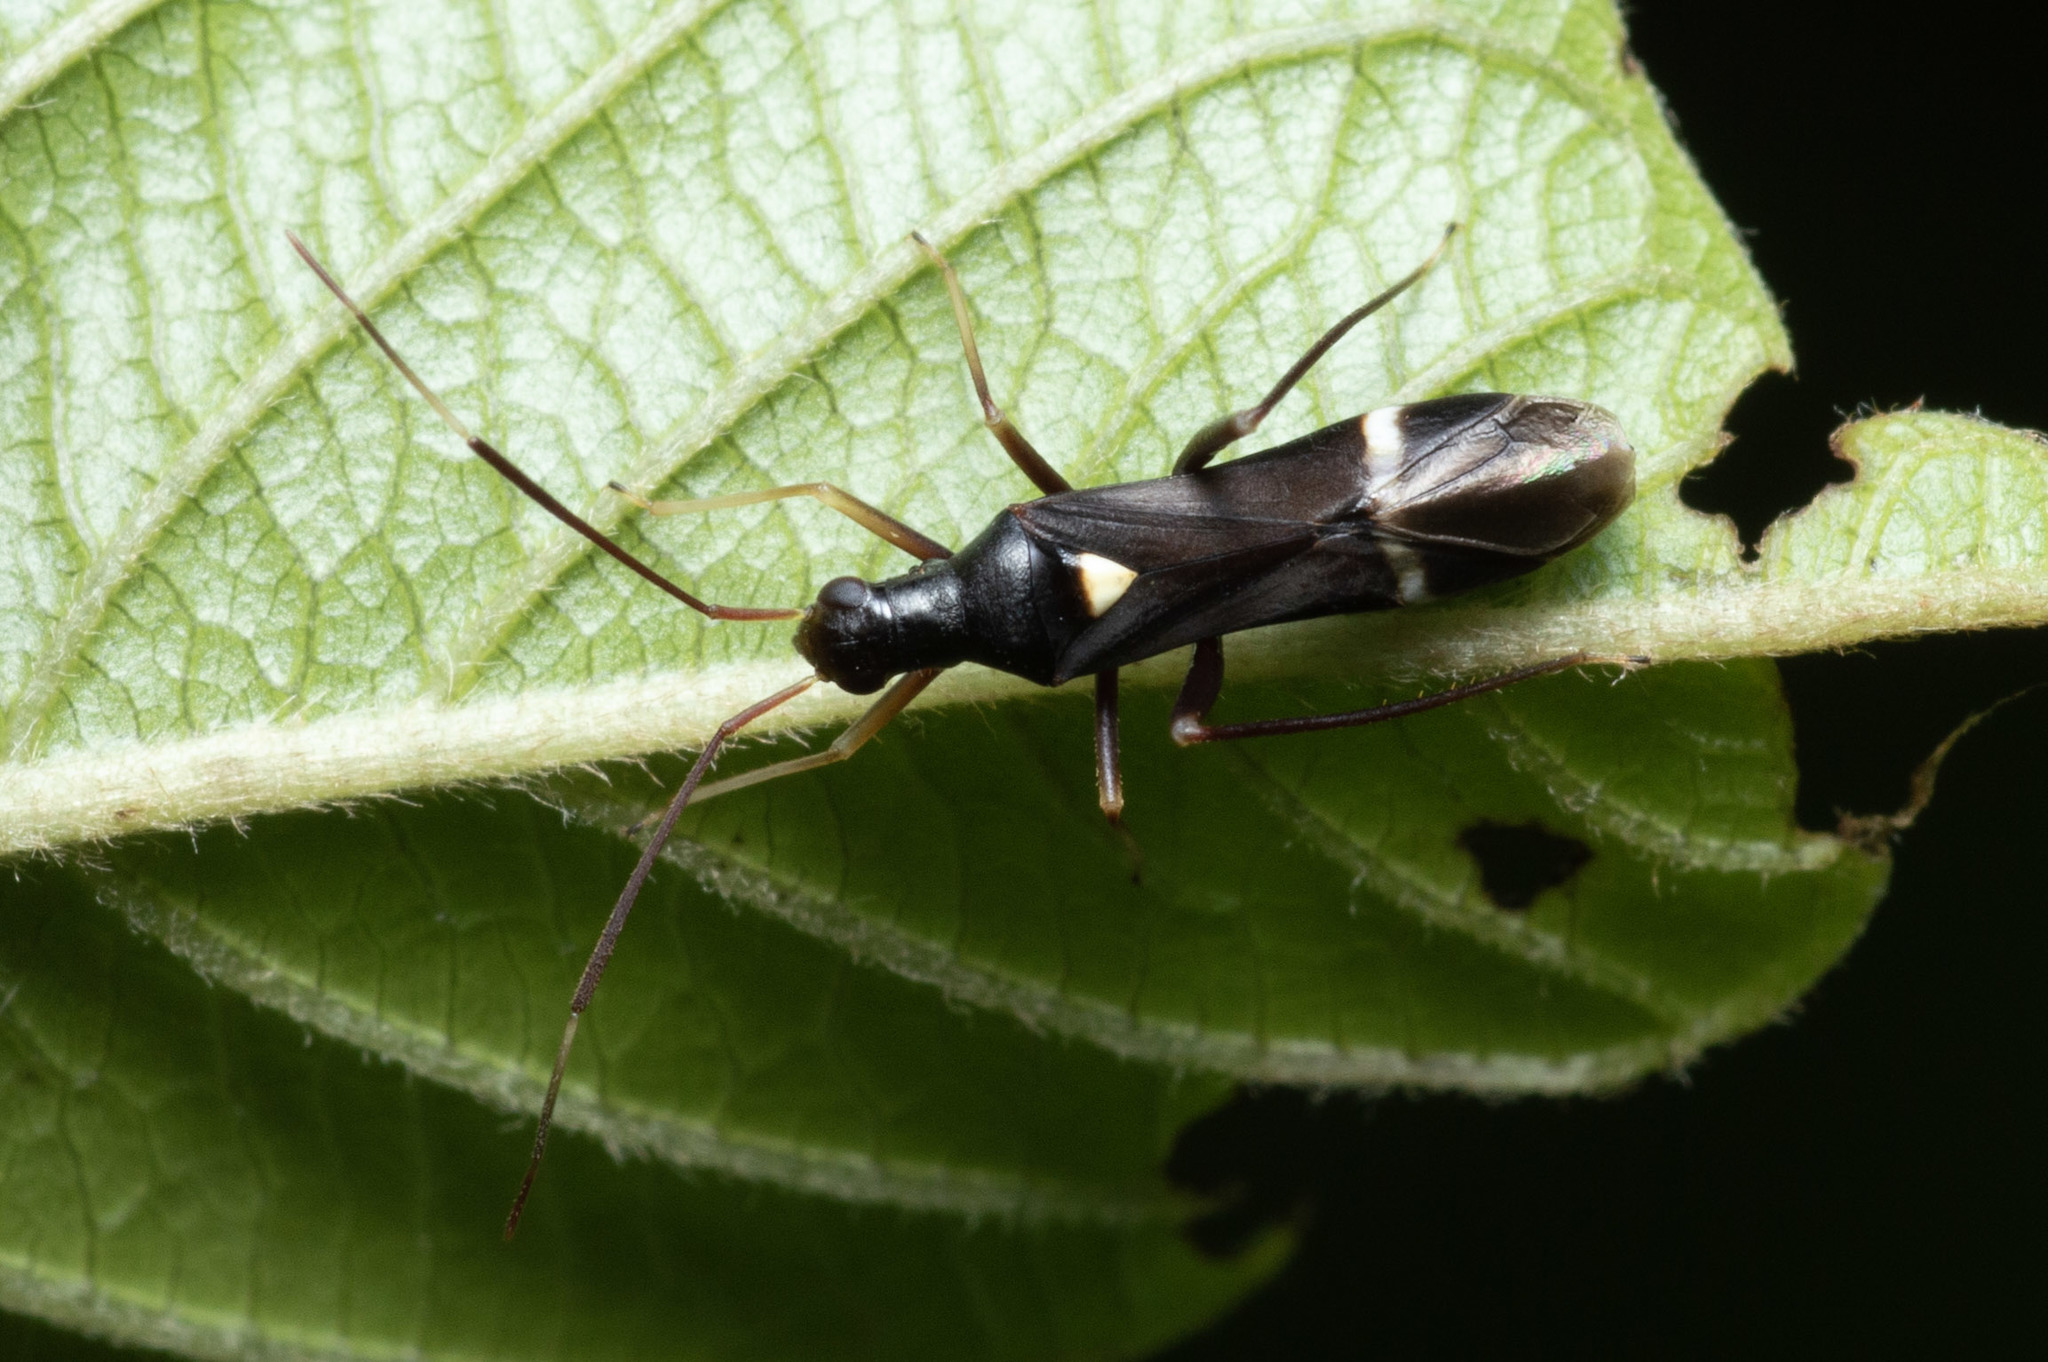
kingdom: Animalia
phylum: Arthropoda
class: Insecta
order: Hemiptera
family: Miridae
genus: Pseudoxenetus
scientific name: Pseudoxenetus regalis
